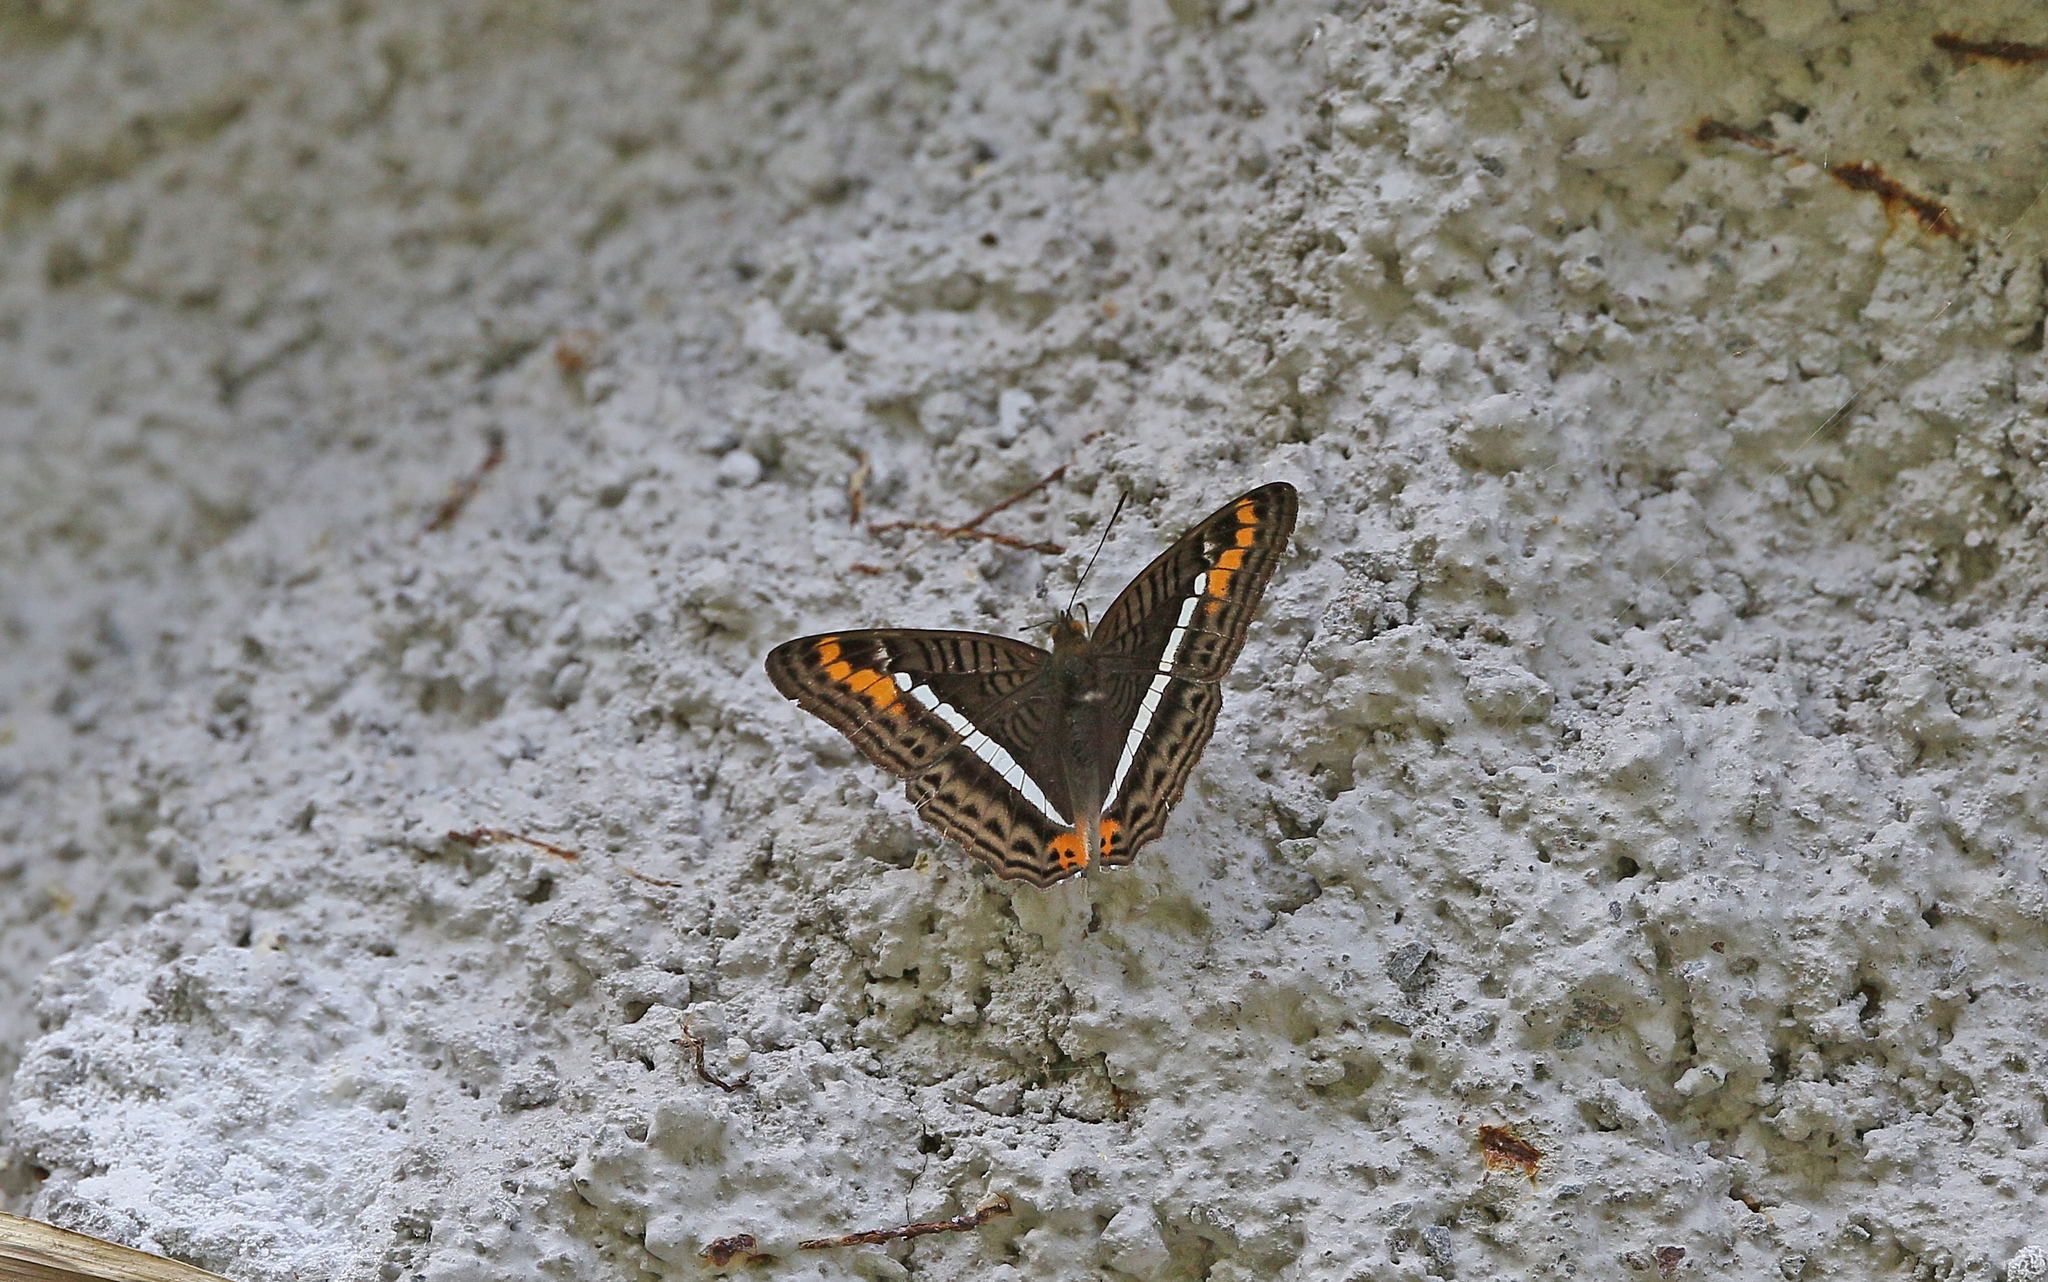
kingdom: Animalia
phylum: Arthropoda
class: Insecta
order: Lepidoptera
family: Nymphalidae
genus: Limenitis
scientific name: Limenitis corcyra
